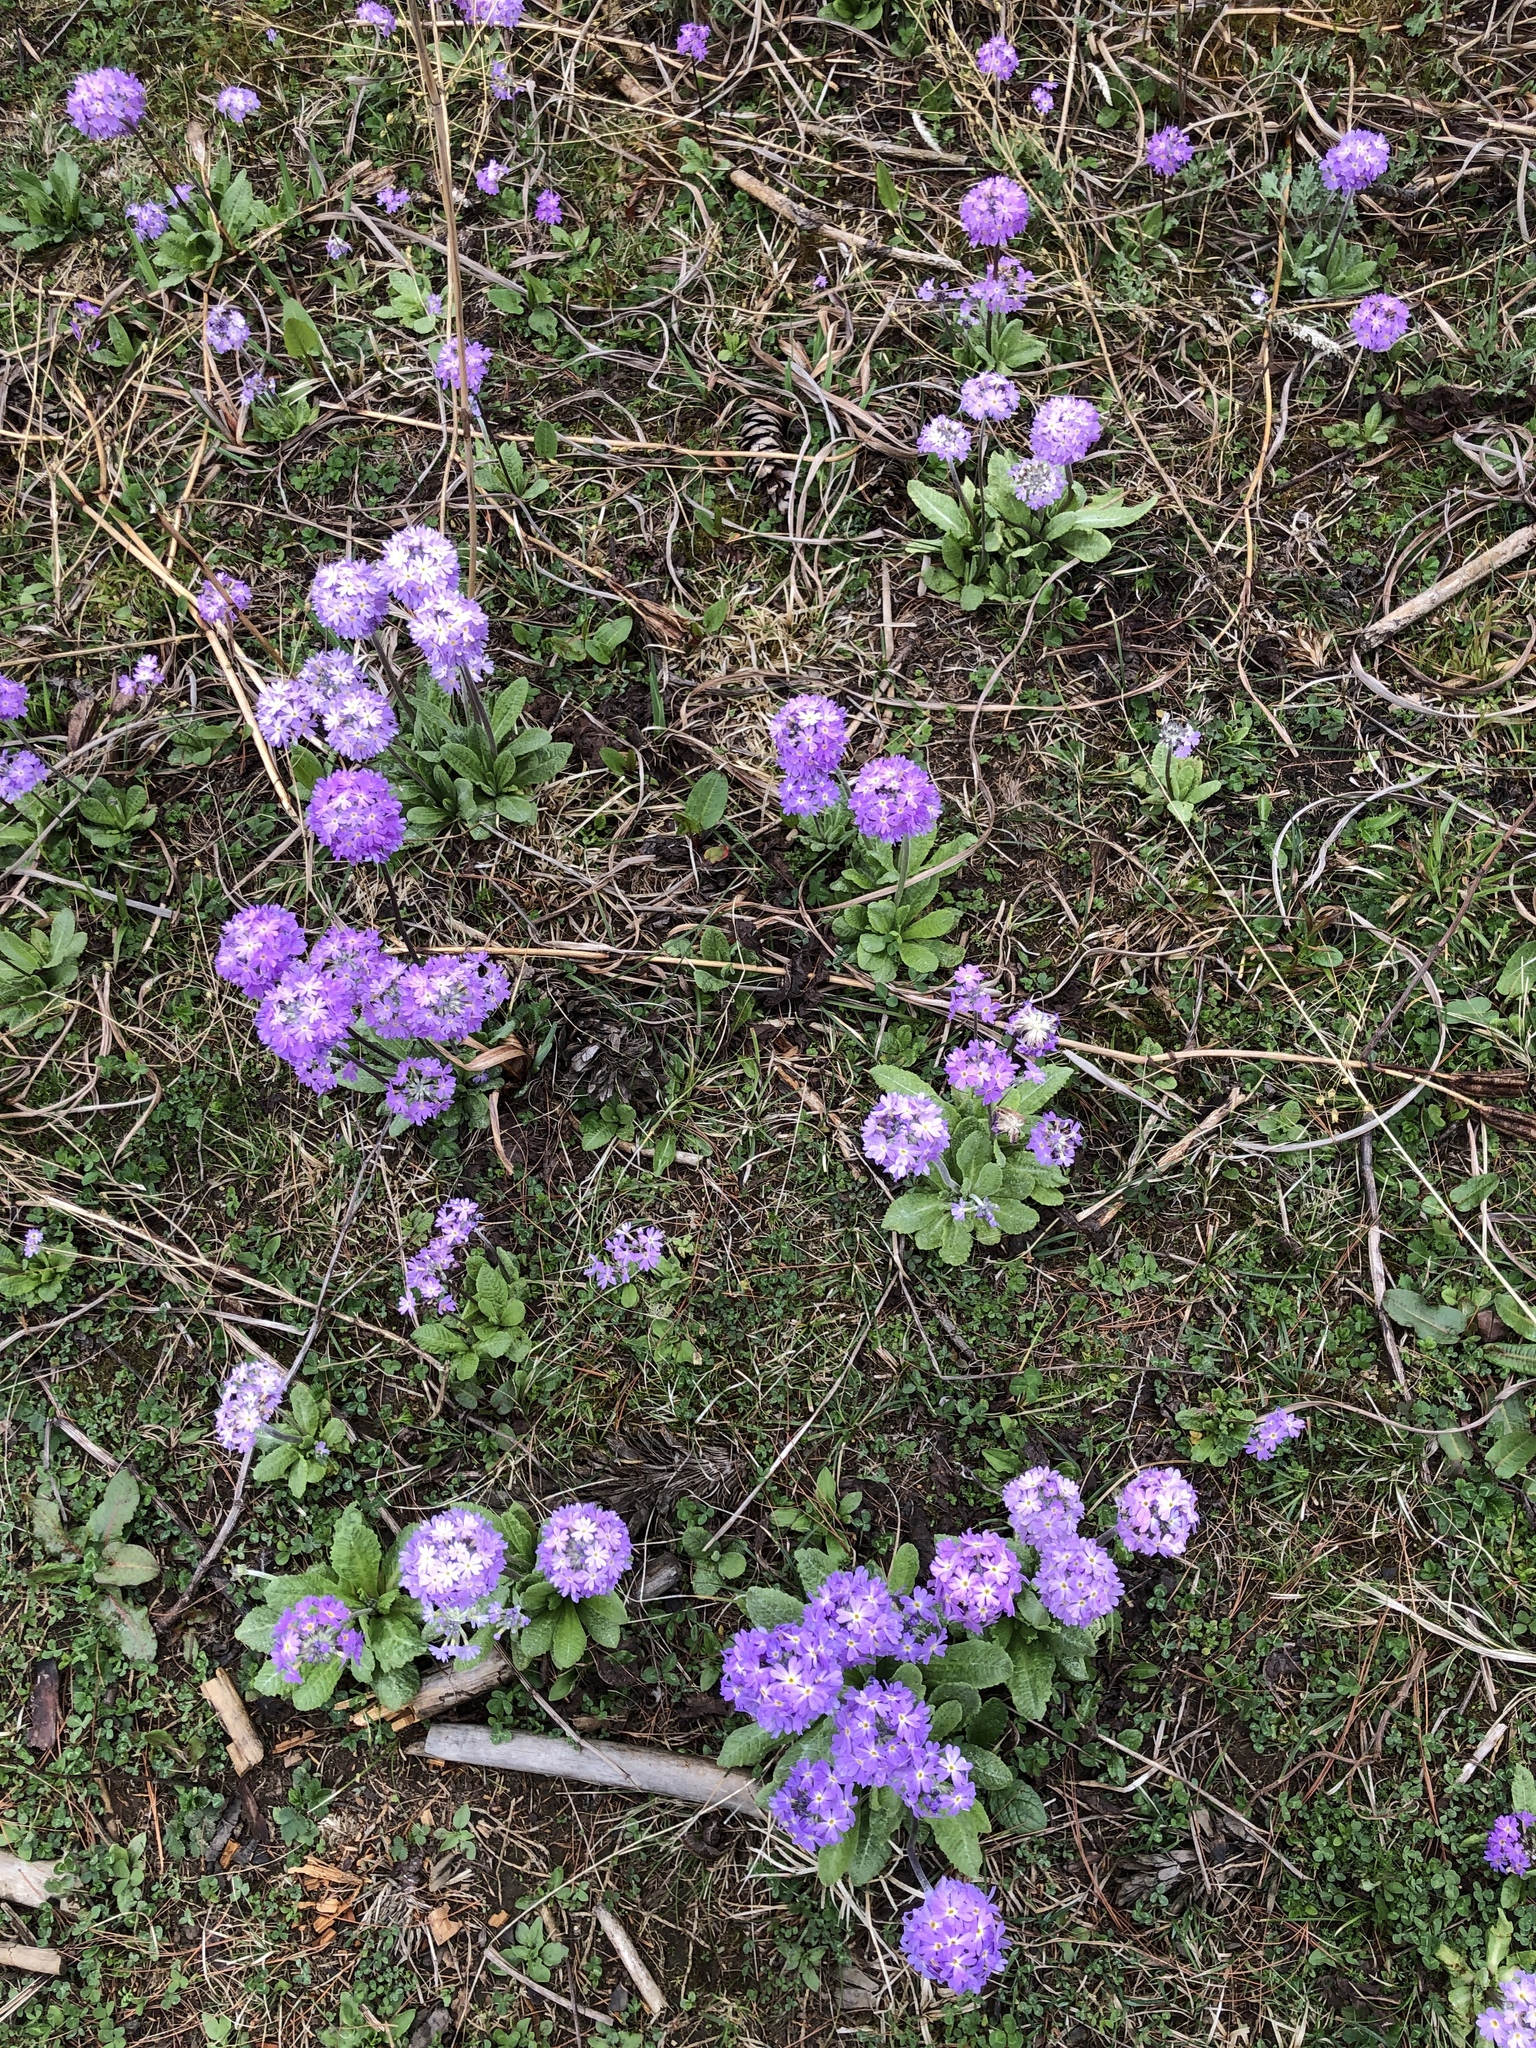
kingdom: Plantae
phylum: Tracheophyta
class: Magnoliopsida
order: Ericales
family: Primulaceae
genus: Primula
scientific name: Primula denticulata
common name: Drumstick primula
